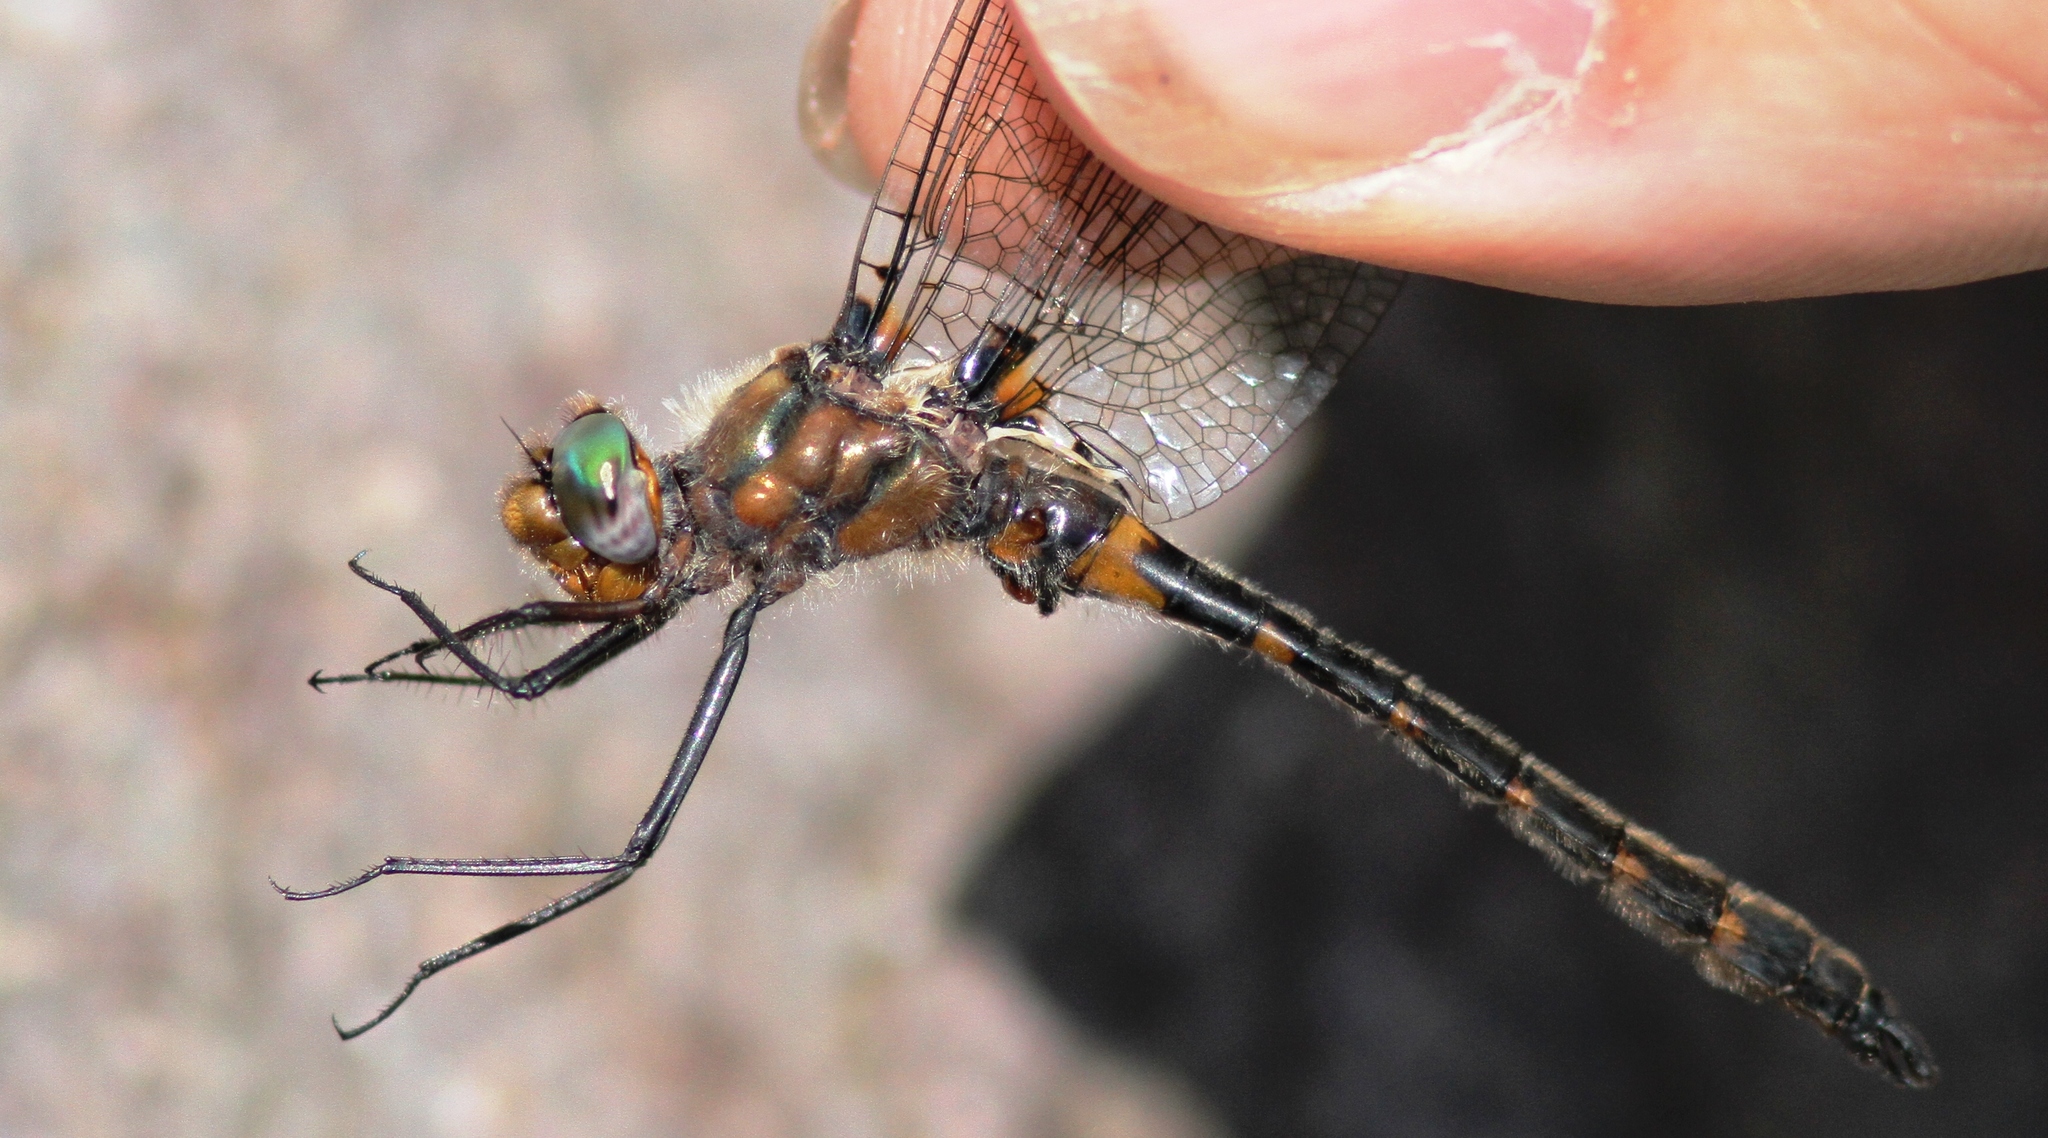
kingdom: Animalia
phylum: Arthropoda
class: Insecta
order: Odonata
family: Corduliidae
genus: Helocordulia
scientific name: Helocordulia uhleri
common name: Uhler's sundragon
